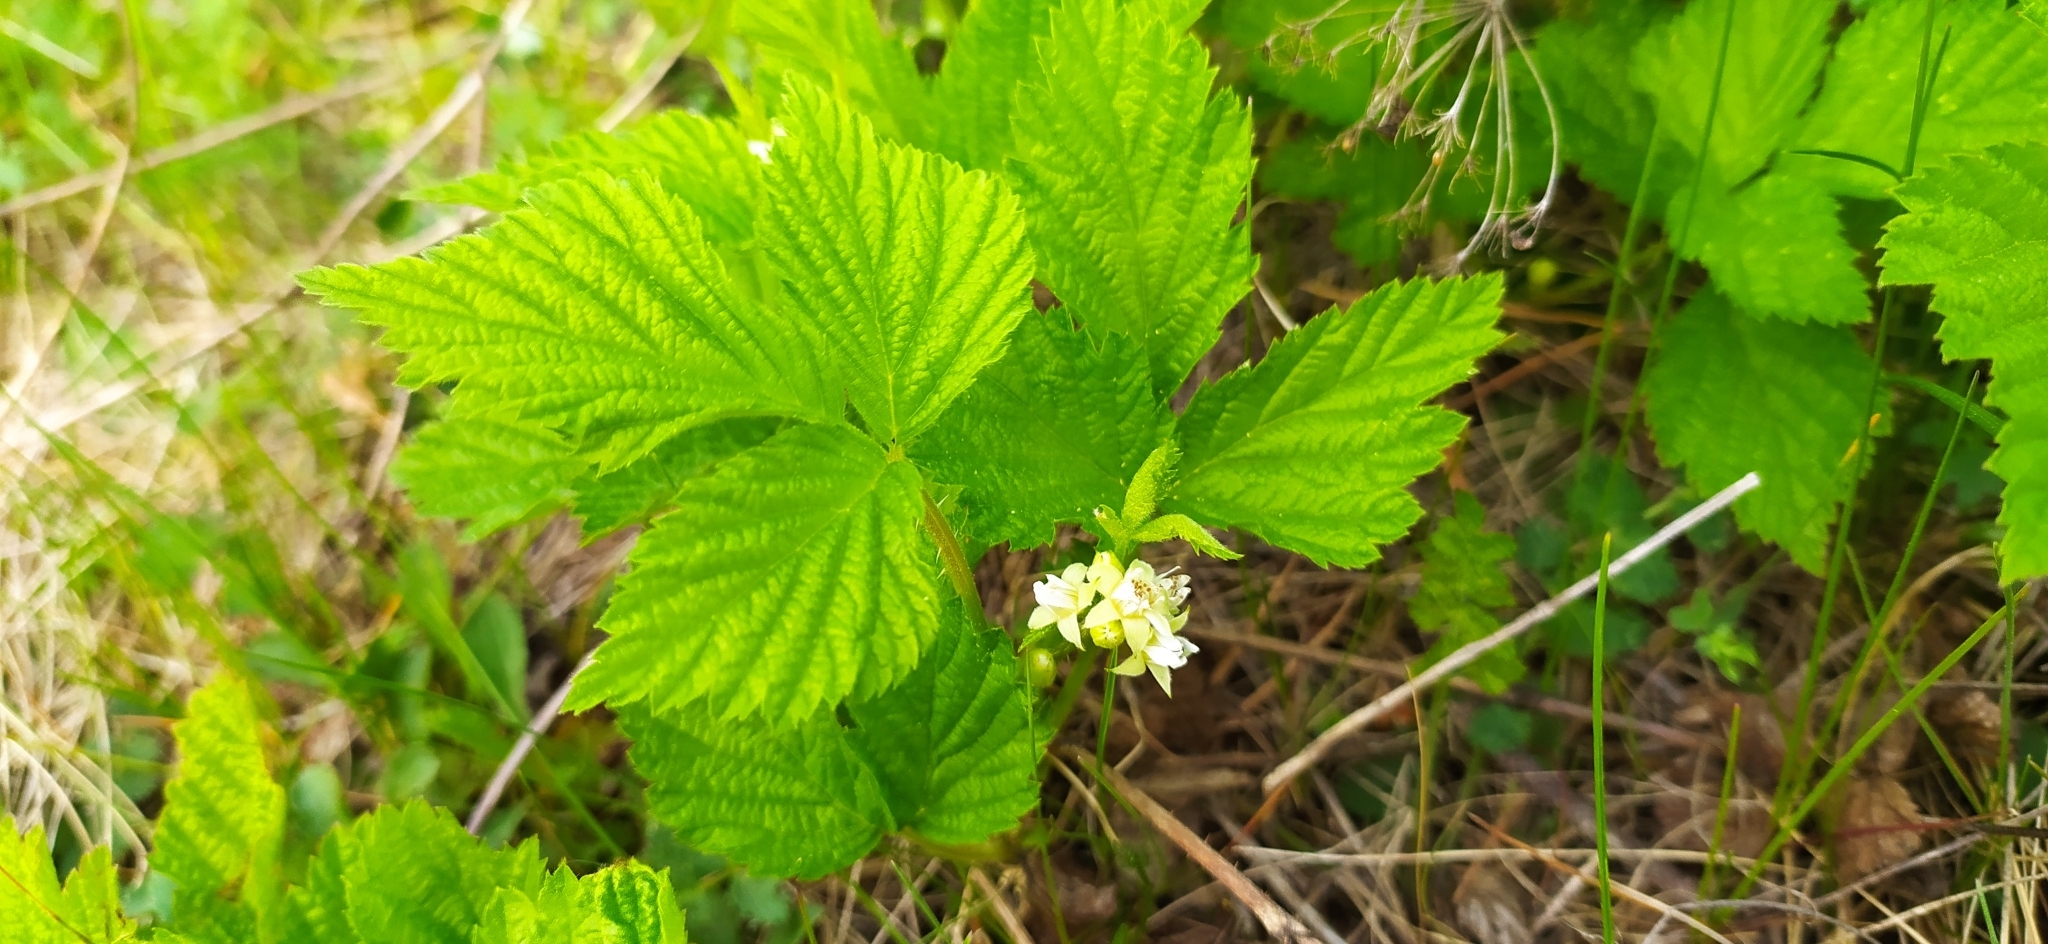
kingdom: Plantae
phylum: Tracheophyta
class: Magnoliopsida
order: Rosales
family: Rosaceae
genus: Rubus
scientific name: Rubus saxatilis
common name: Stone bramble
